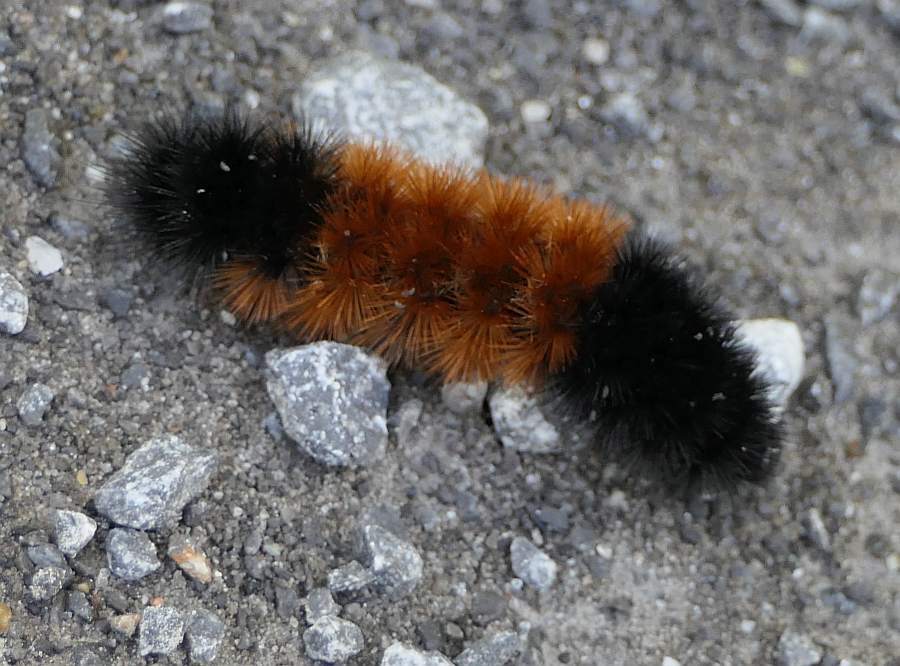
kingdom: Animalia
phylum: Arthropoda
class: Insecta
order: Lepidoptera
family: Erebidae
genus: Pyrrharctia
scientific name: Pyrrharctia isabella
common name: Isabella tiger moth
